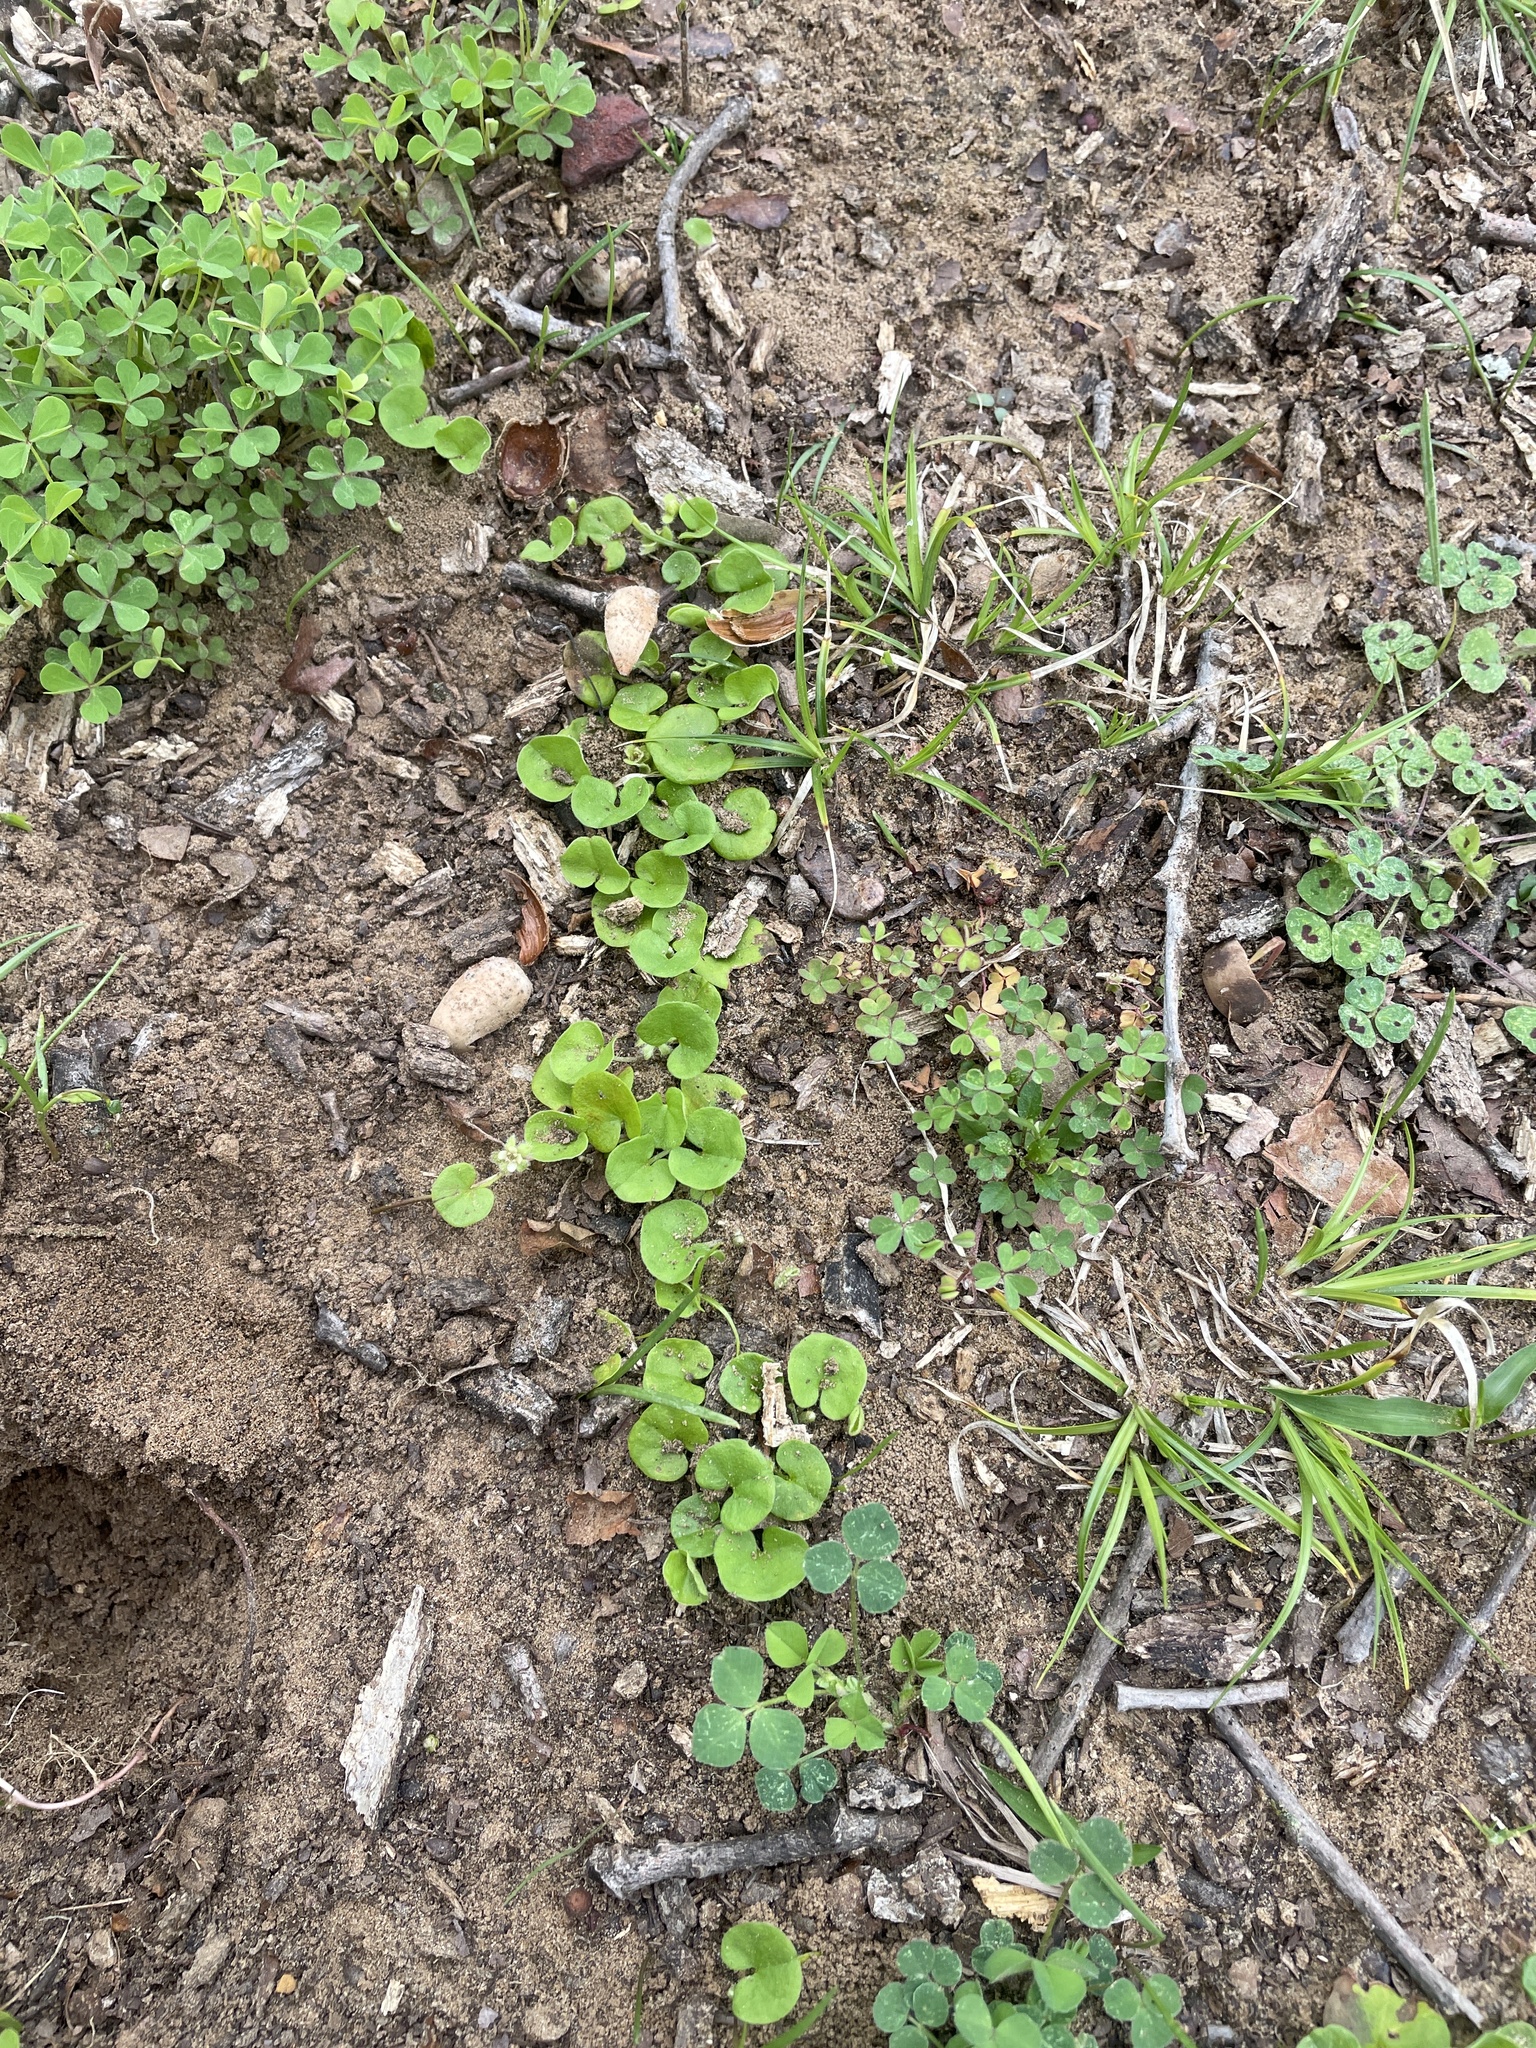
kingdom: Plantae
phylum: Tracheophyta
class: Magnoliopsida
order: Solanales
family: Convolvulaceae
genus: Dichondra
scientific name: Dichondra carolinensis
